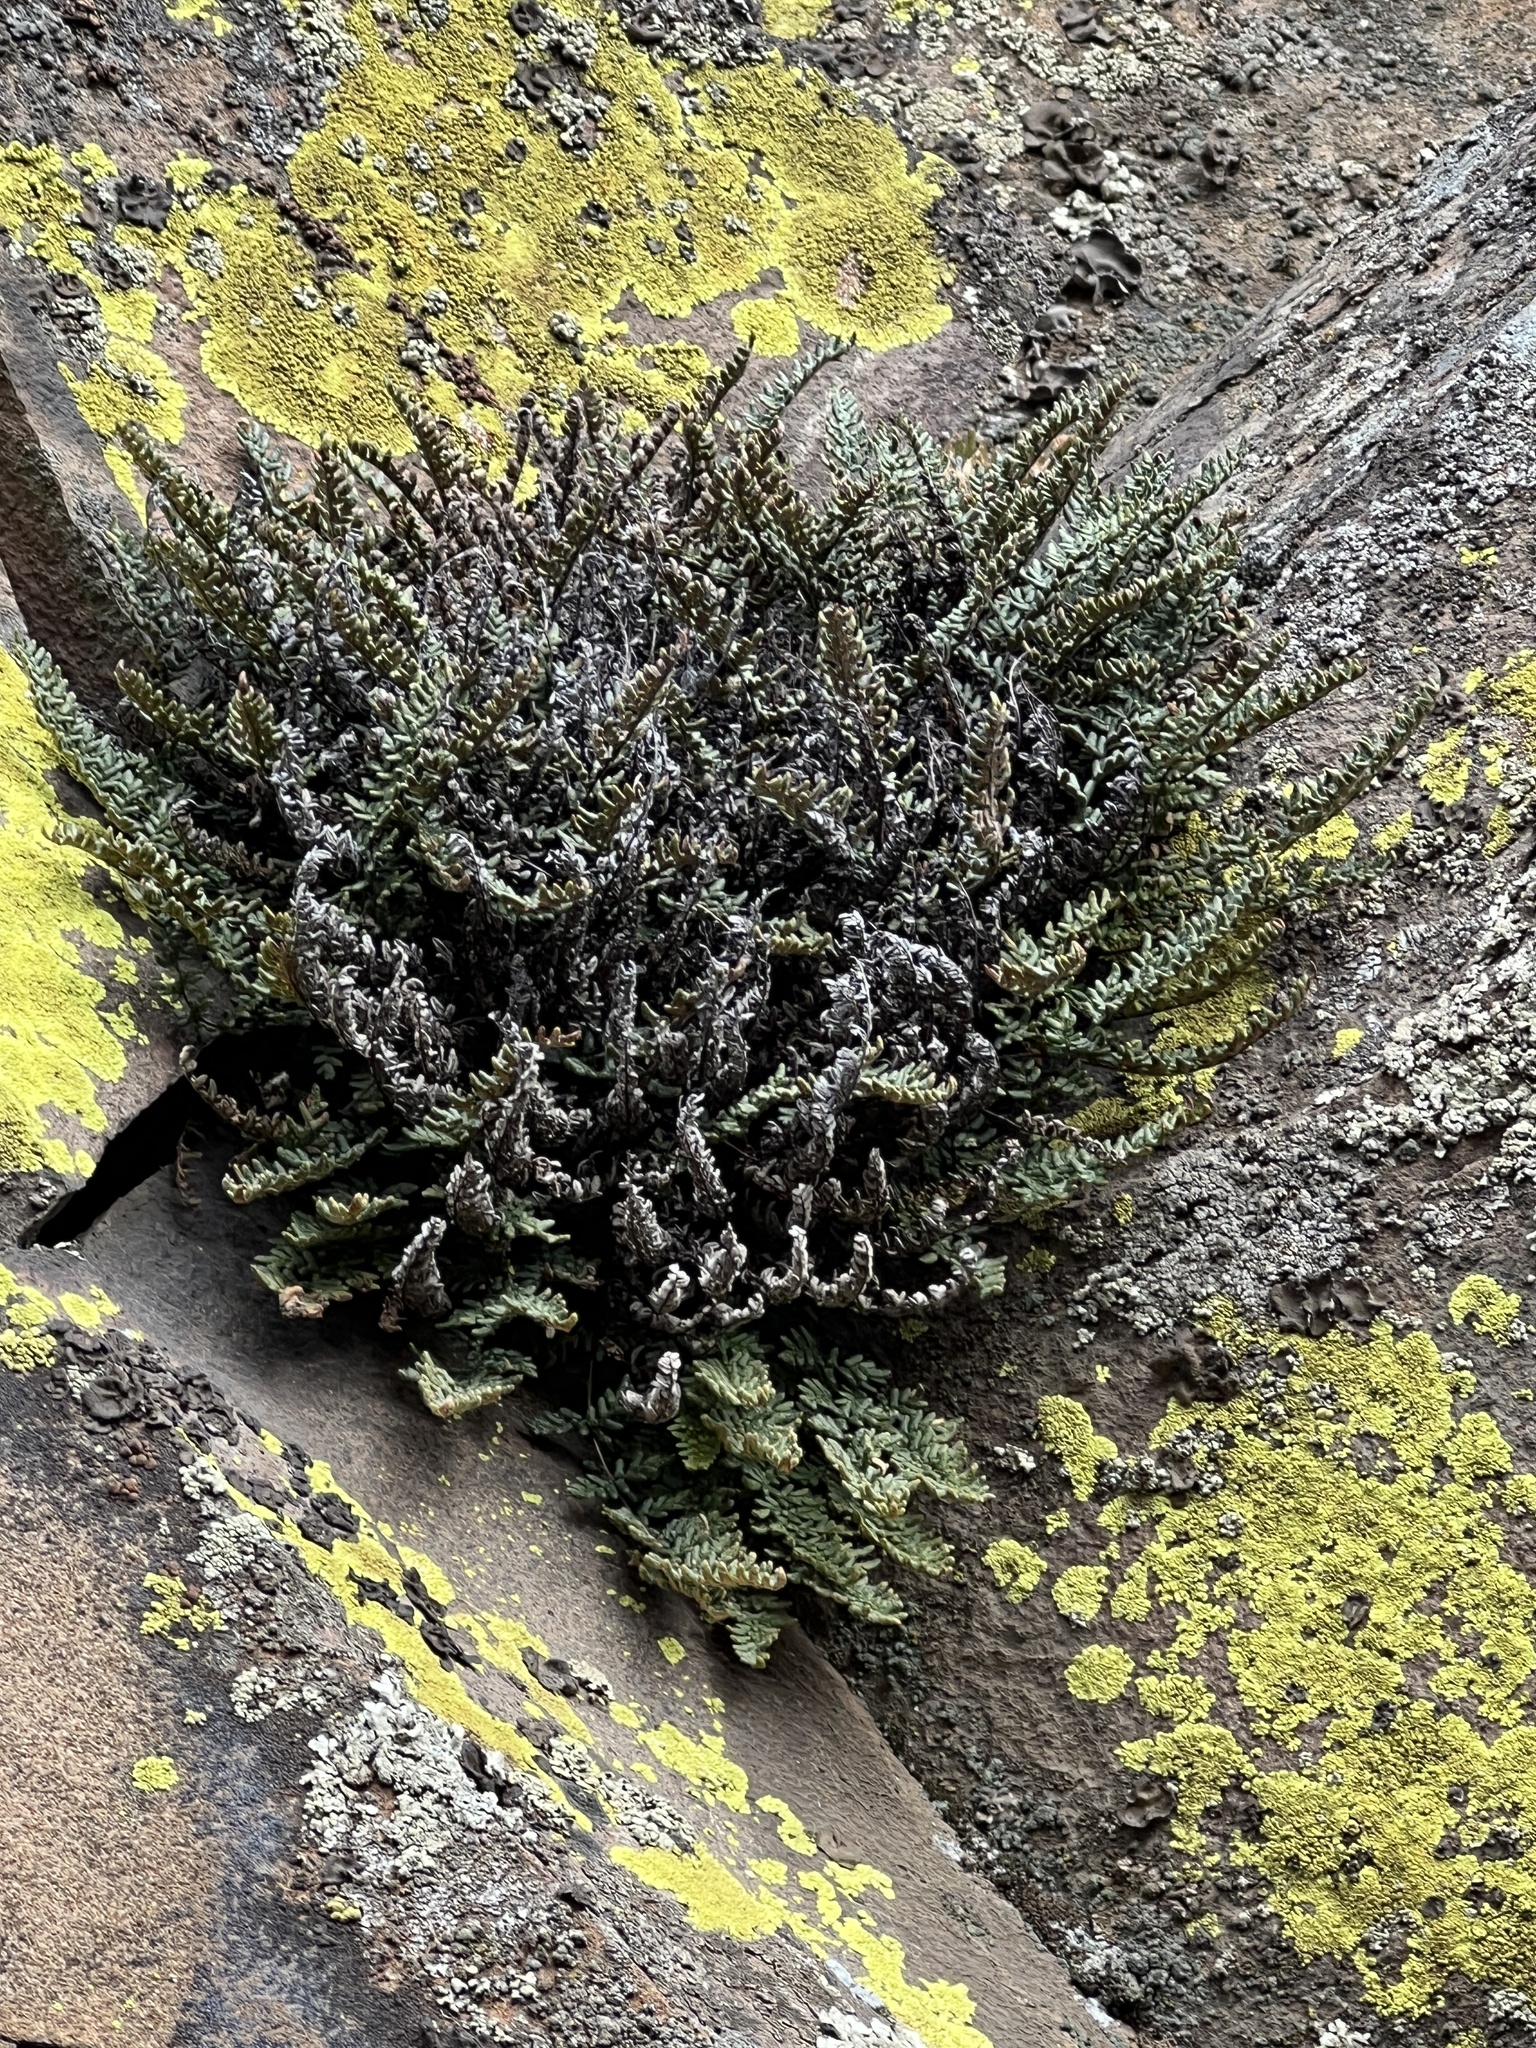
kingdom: Plantae
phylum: Tracheophyta
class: Polypodiopsida
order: Polypodiales
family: Pteridaceae
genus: Myriopteris
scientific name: Myriopteris gracillima
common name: Lace fern
